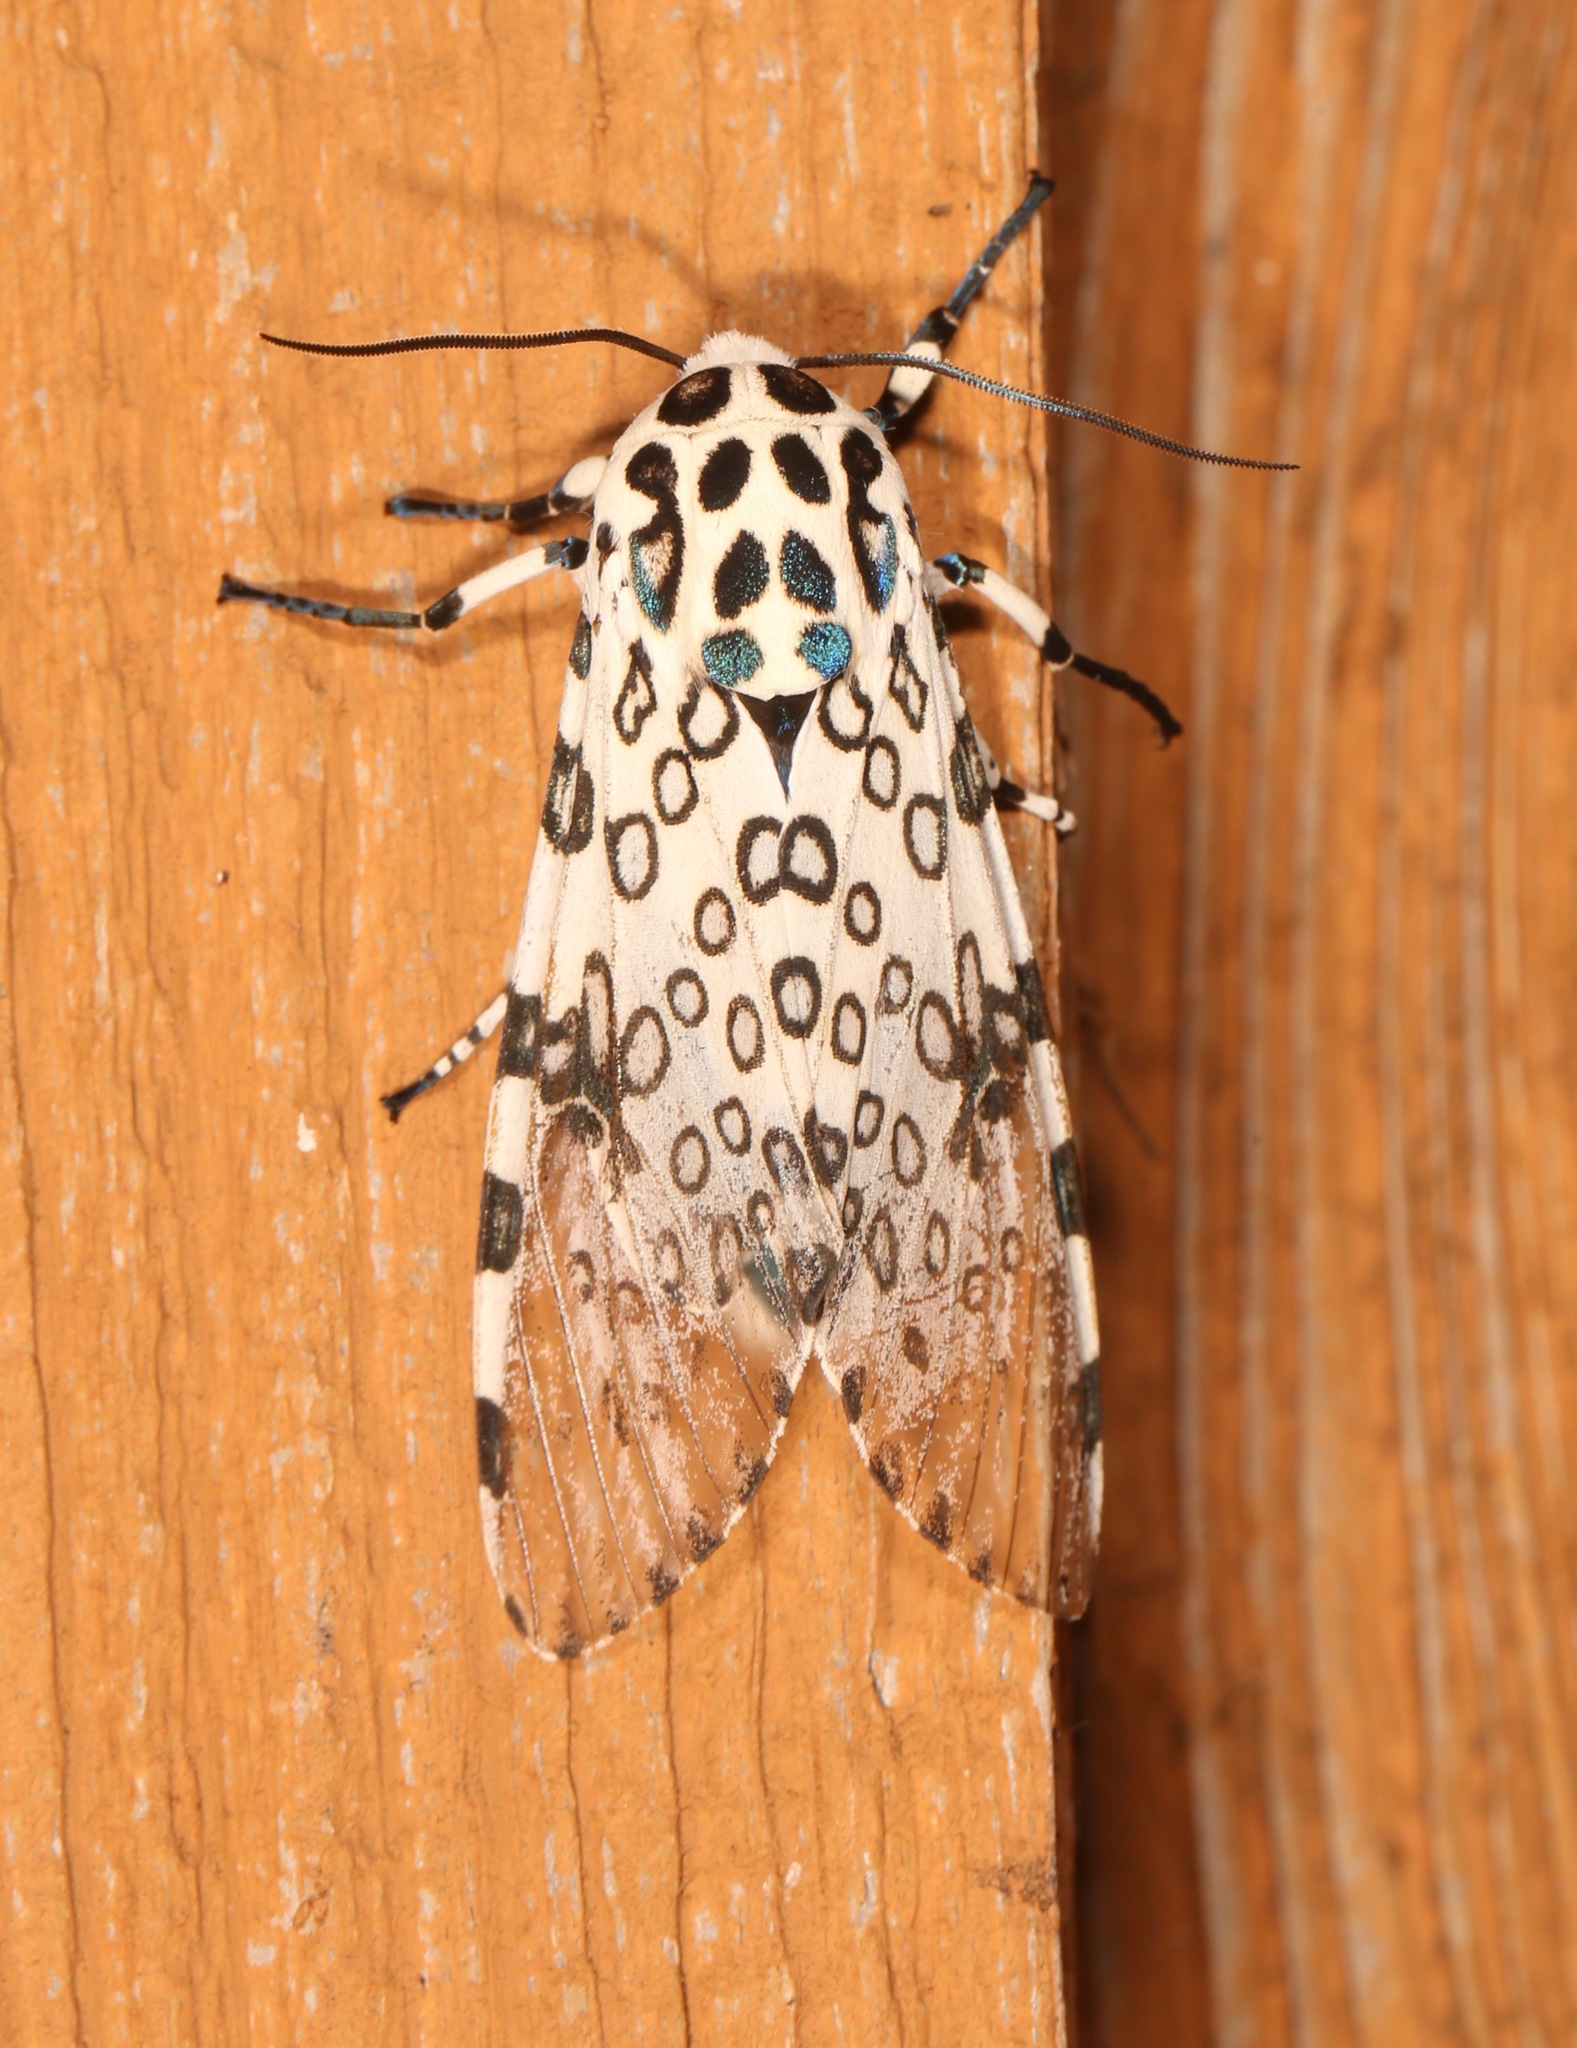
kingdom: Animalia
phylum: Arthropoda
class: Insecta
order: Lepidoptera
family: Erebidae
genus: Hypercompe
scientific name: Hypercompe scribonia
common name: Giant leopard moth
